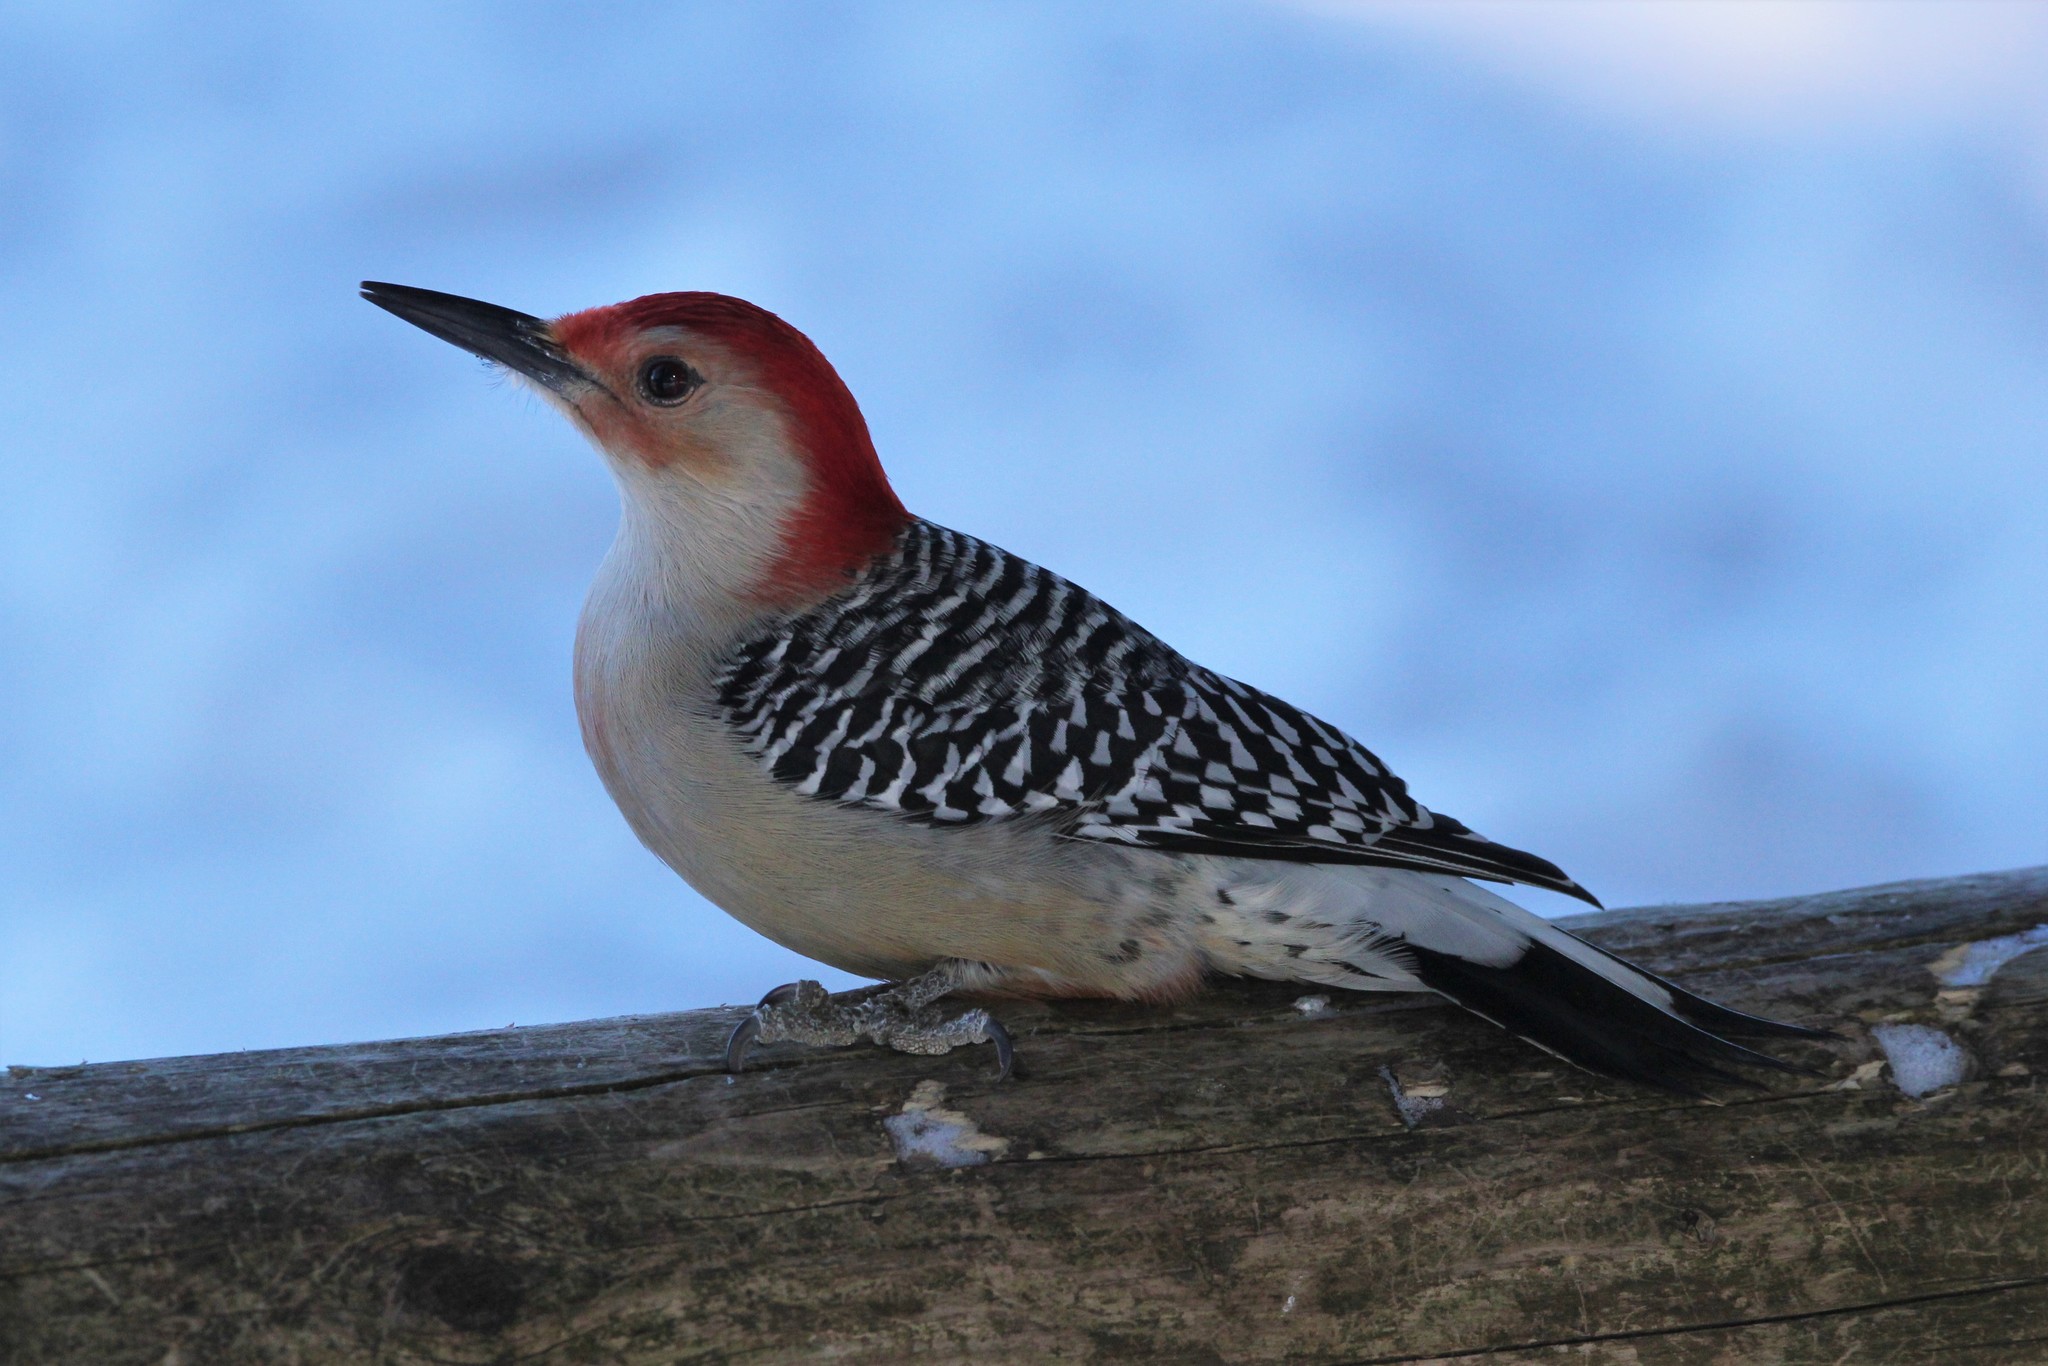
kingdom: Animalia
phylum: Chordata
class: Aves
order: Piciformes
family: Picidae
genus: Melanerpes
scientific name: Melanerpes carolinus
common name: Red-bellied woodpecker
